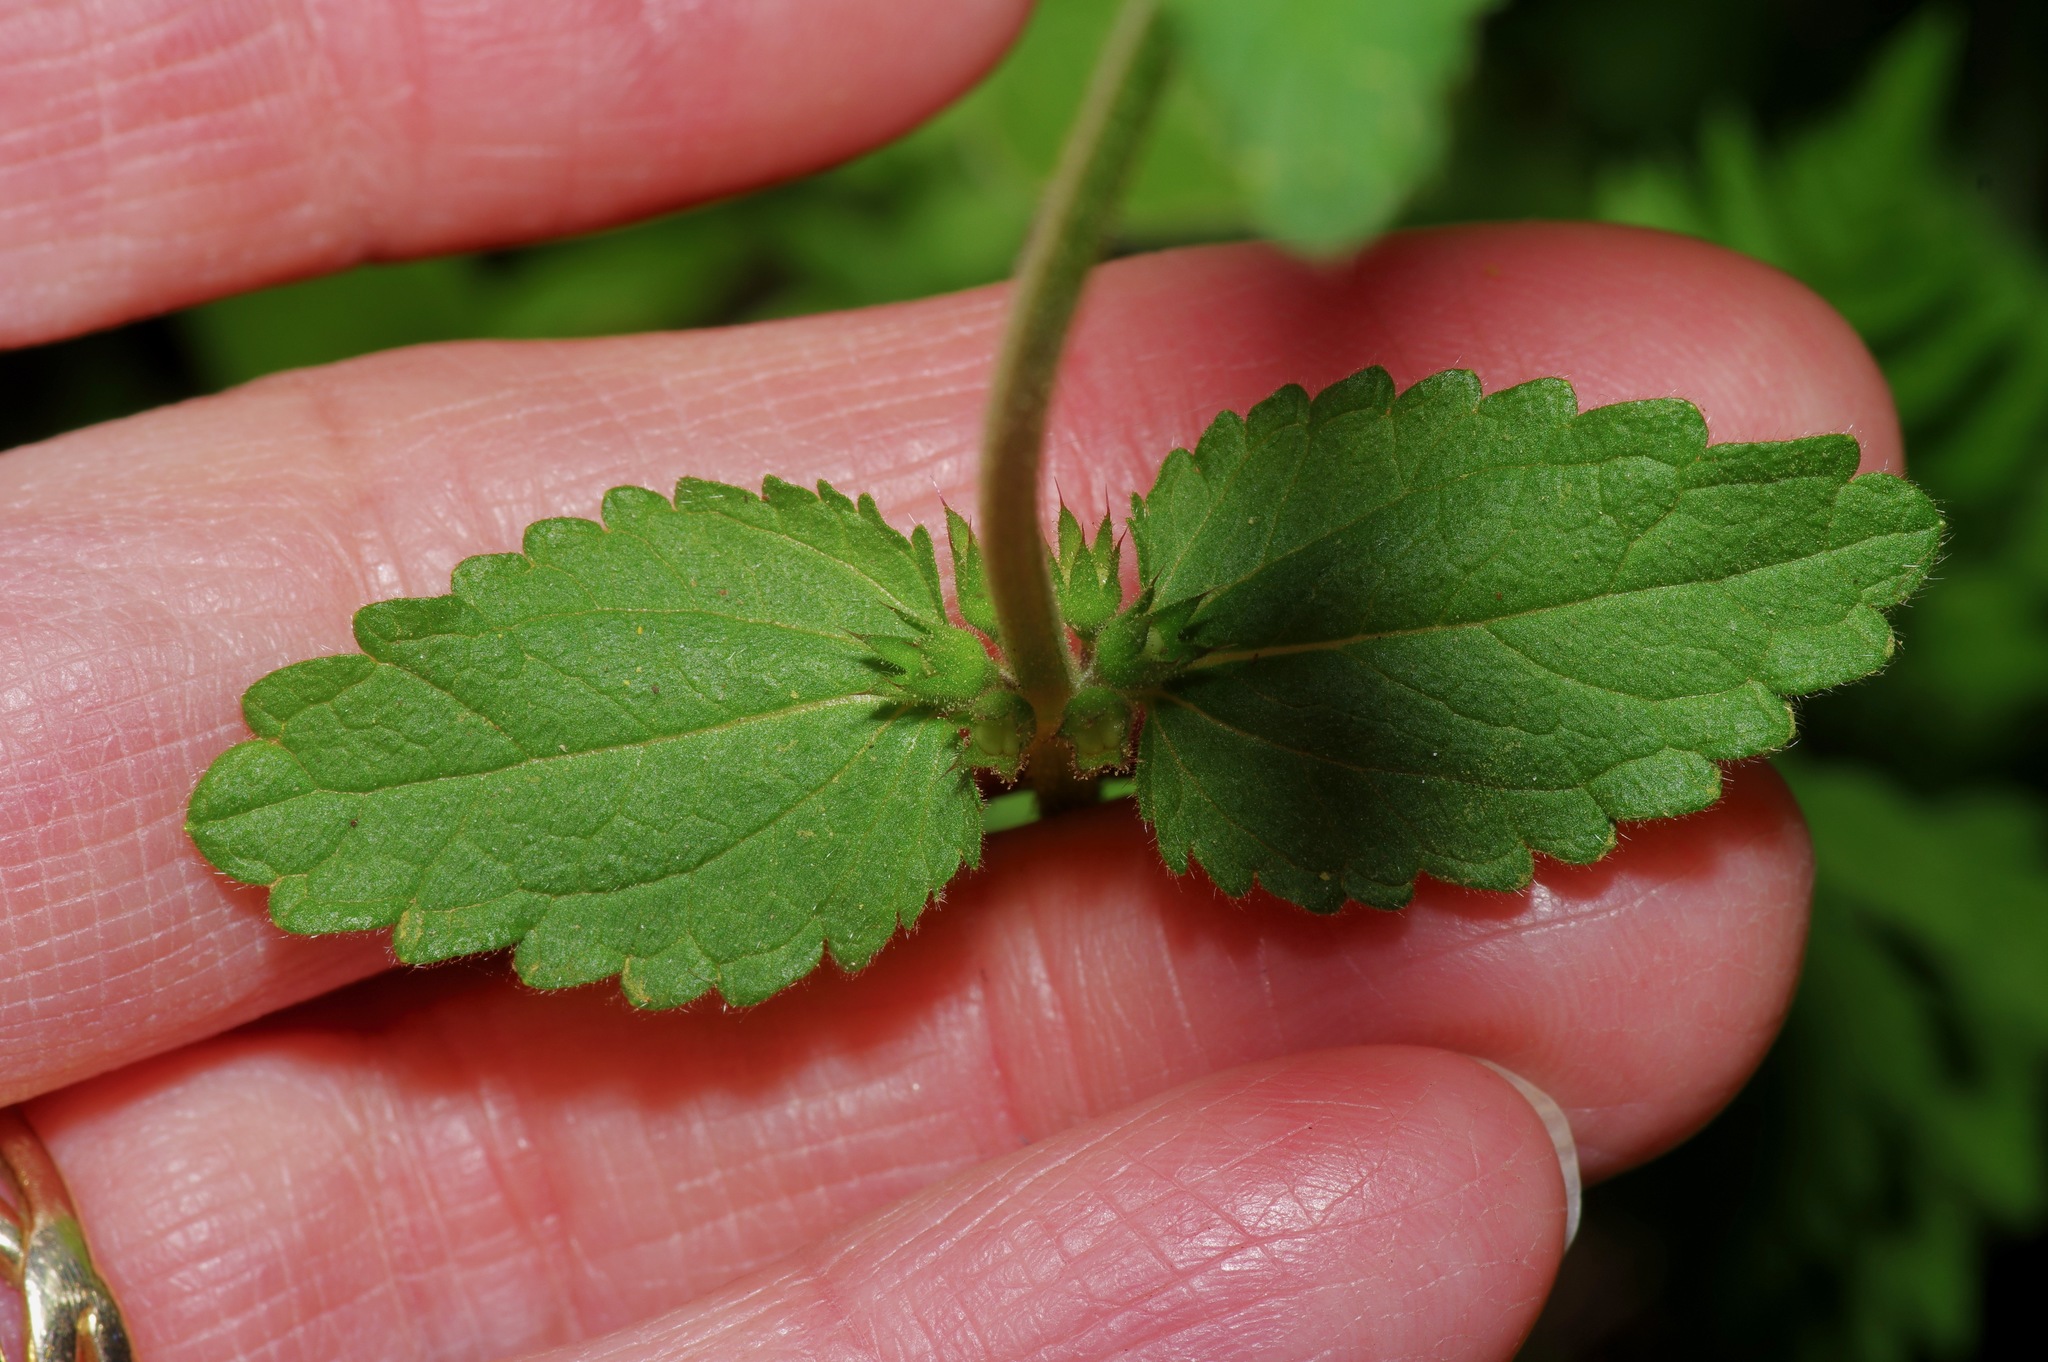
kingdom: Plantae
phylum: Tracheophyta
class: Magnoliopsida
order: Lamiales
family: Lamiaceae
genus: Stachys
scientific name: Stachys
